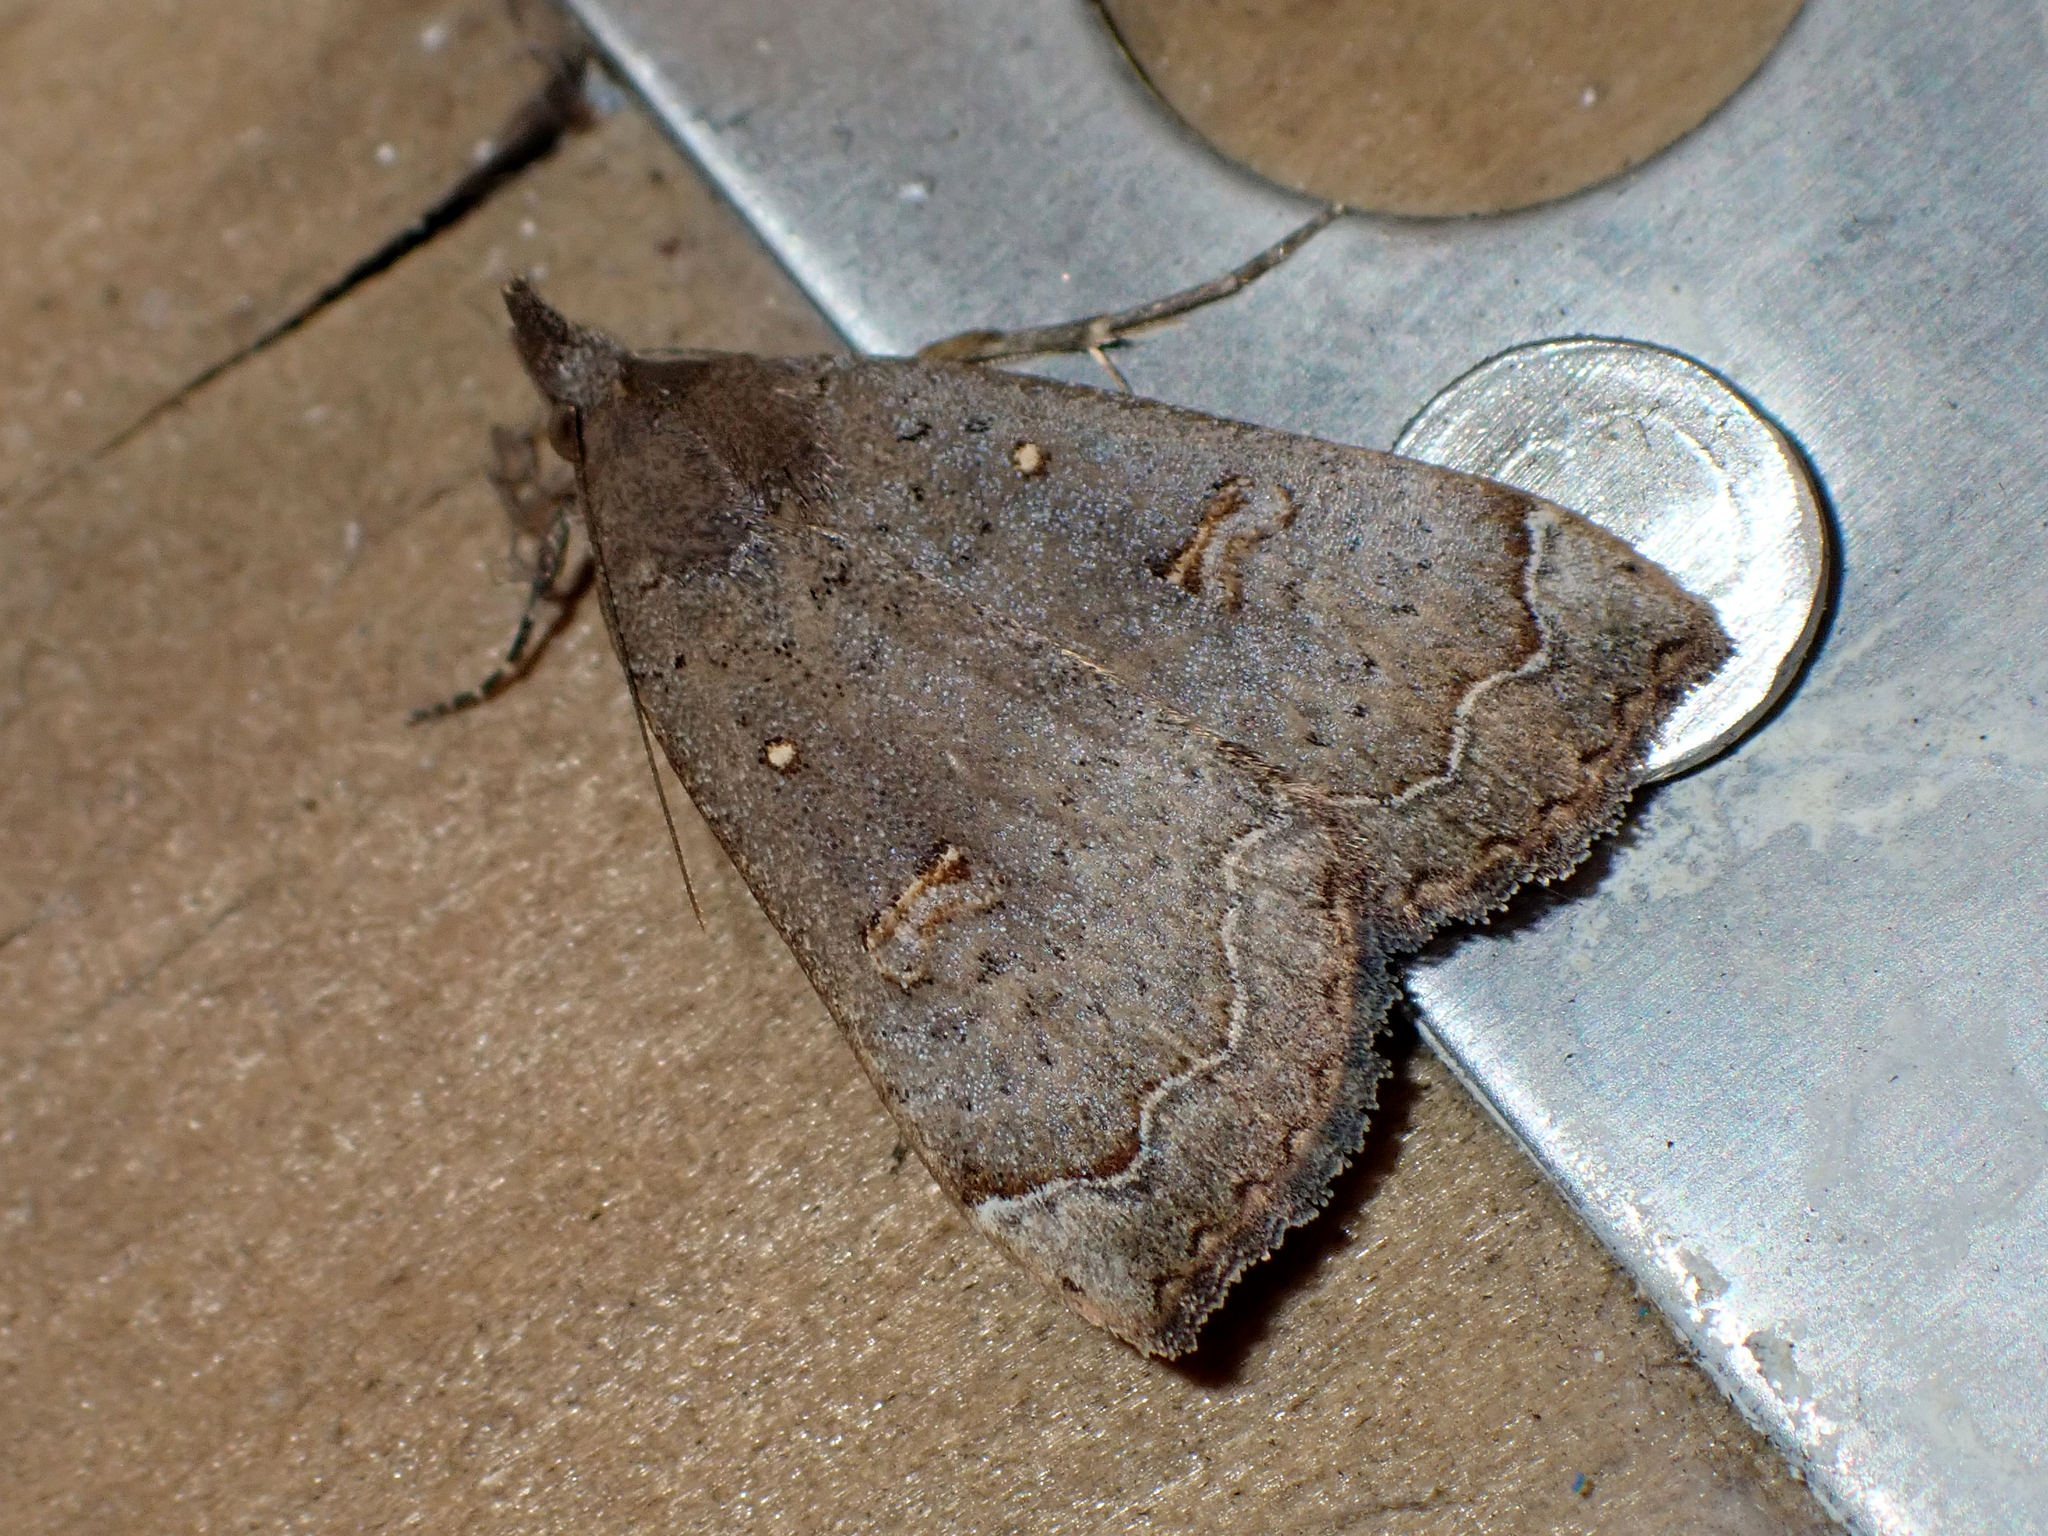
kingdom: Animalia
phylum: Arthropoda
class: Insecta
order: Lepidoptera
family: Erebidae
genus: Rhapsa
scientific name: Rhapsa scotosialis
